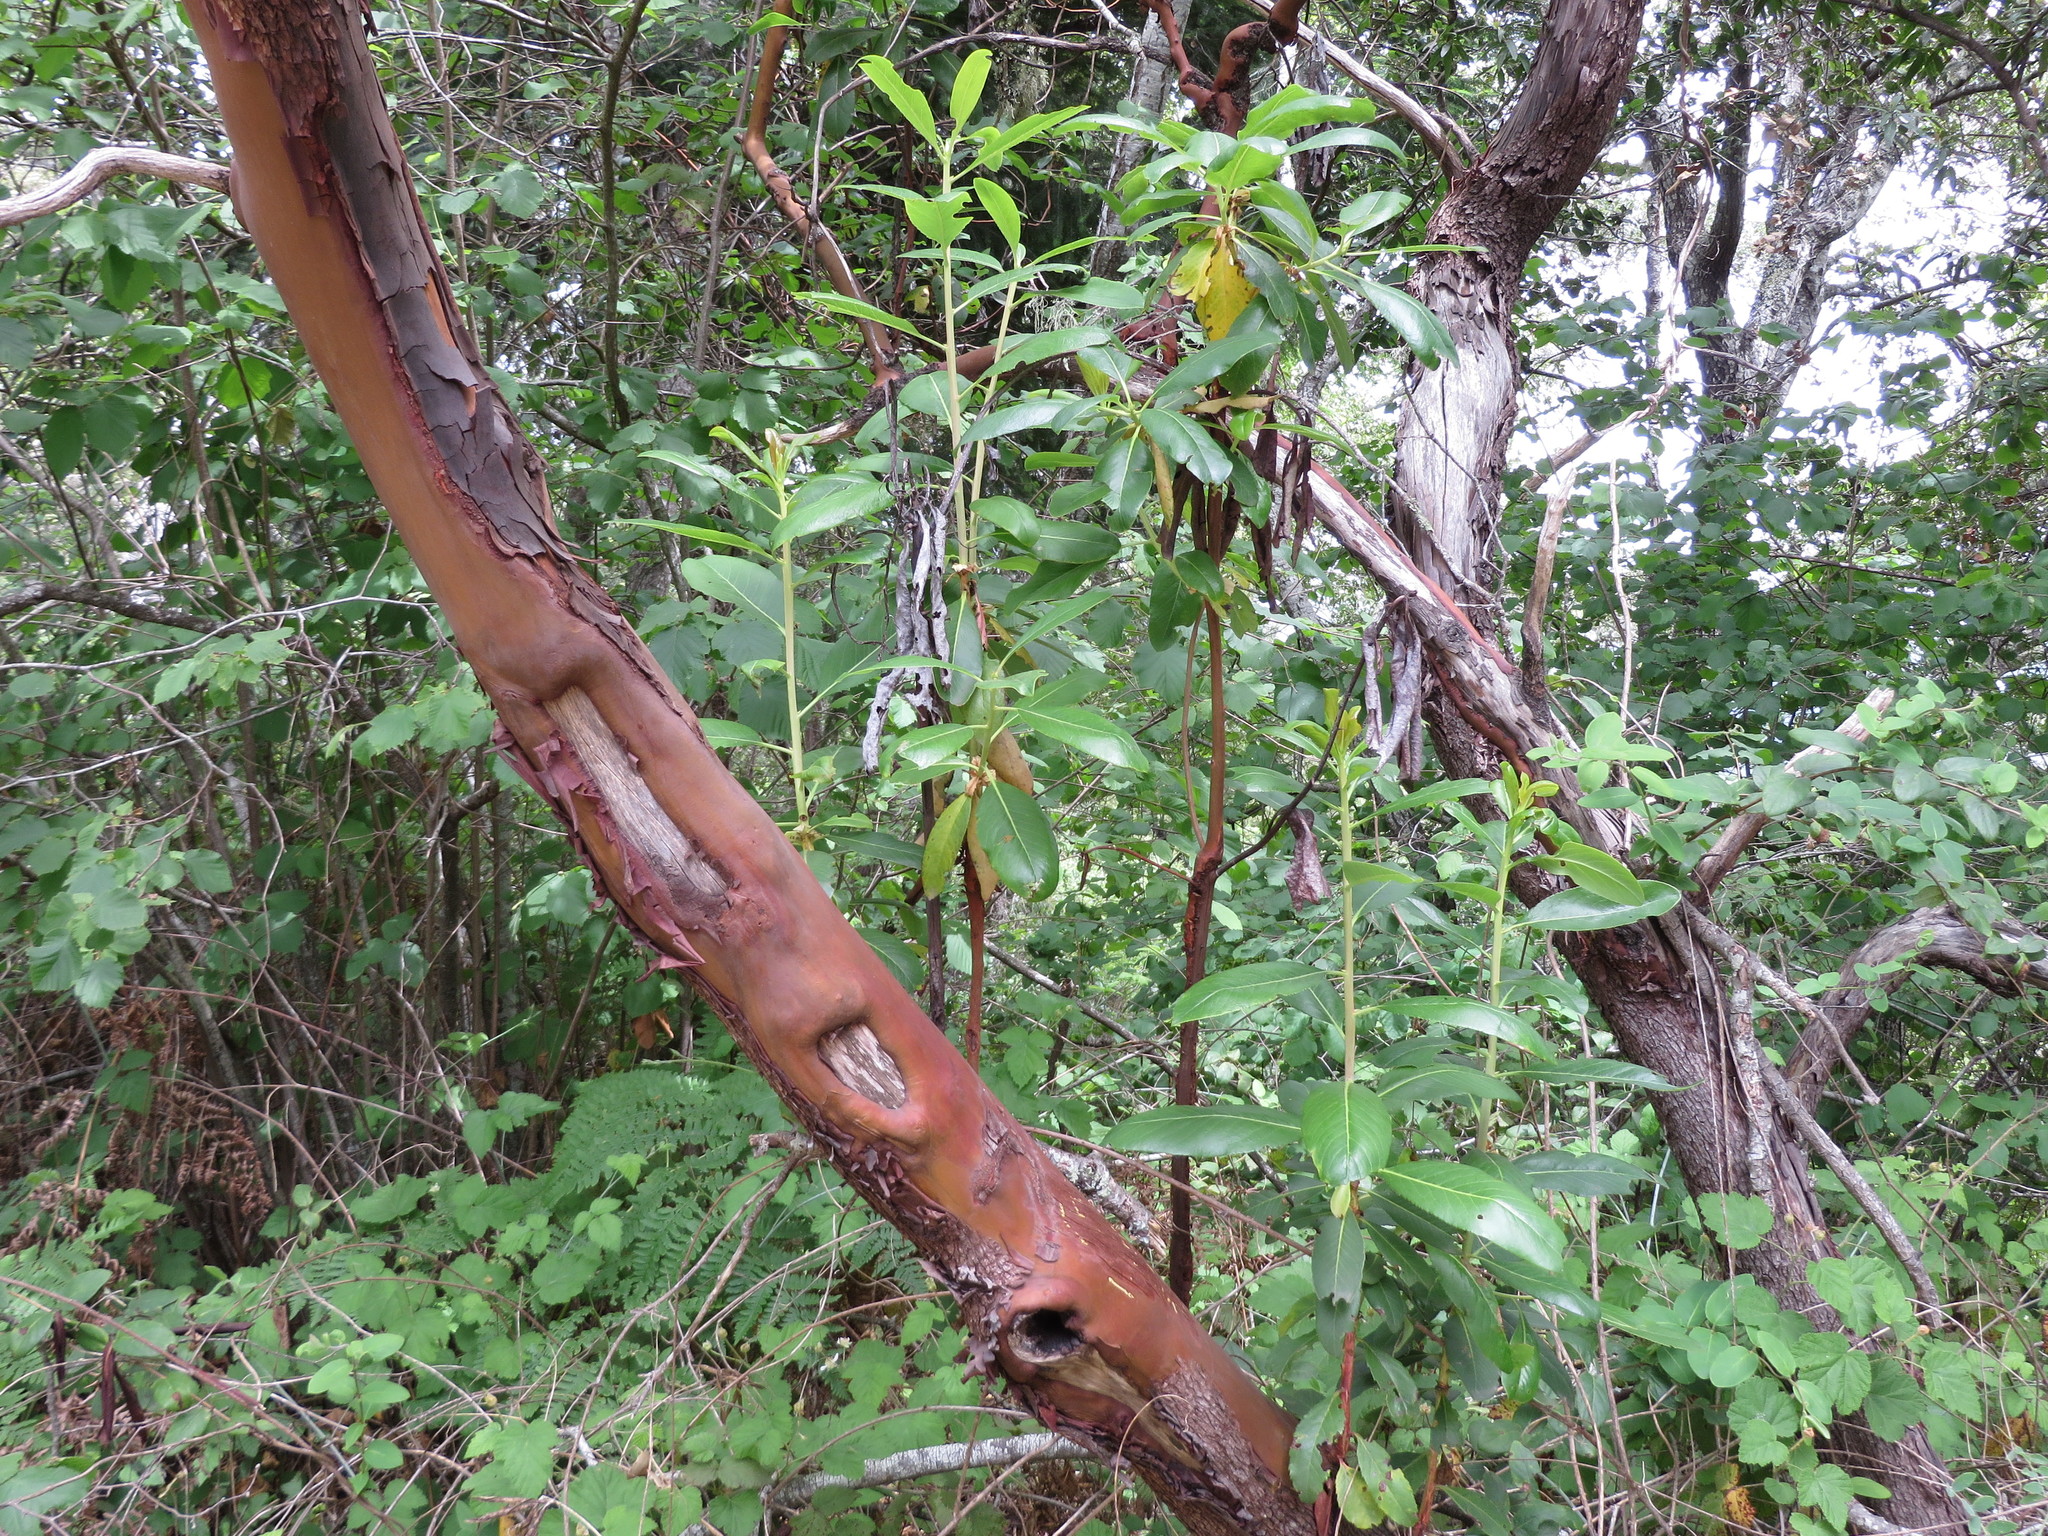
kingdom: Plantae
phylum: Tracheophyta
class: Magnoliopsida
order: Ericales
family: Ericaceae
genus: Arbutus
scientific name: Arbutus menziesii
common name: Pacific madrone
